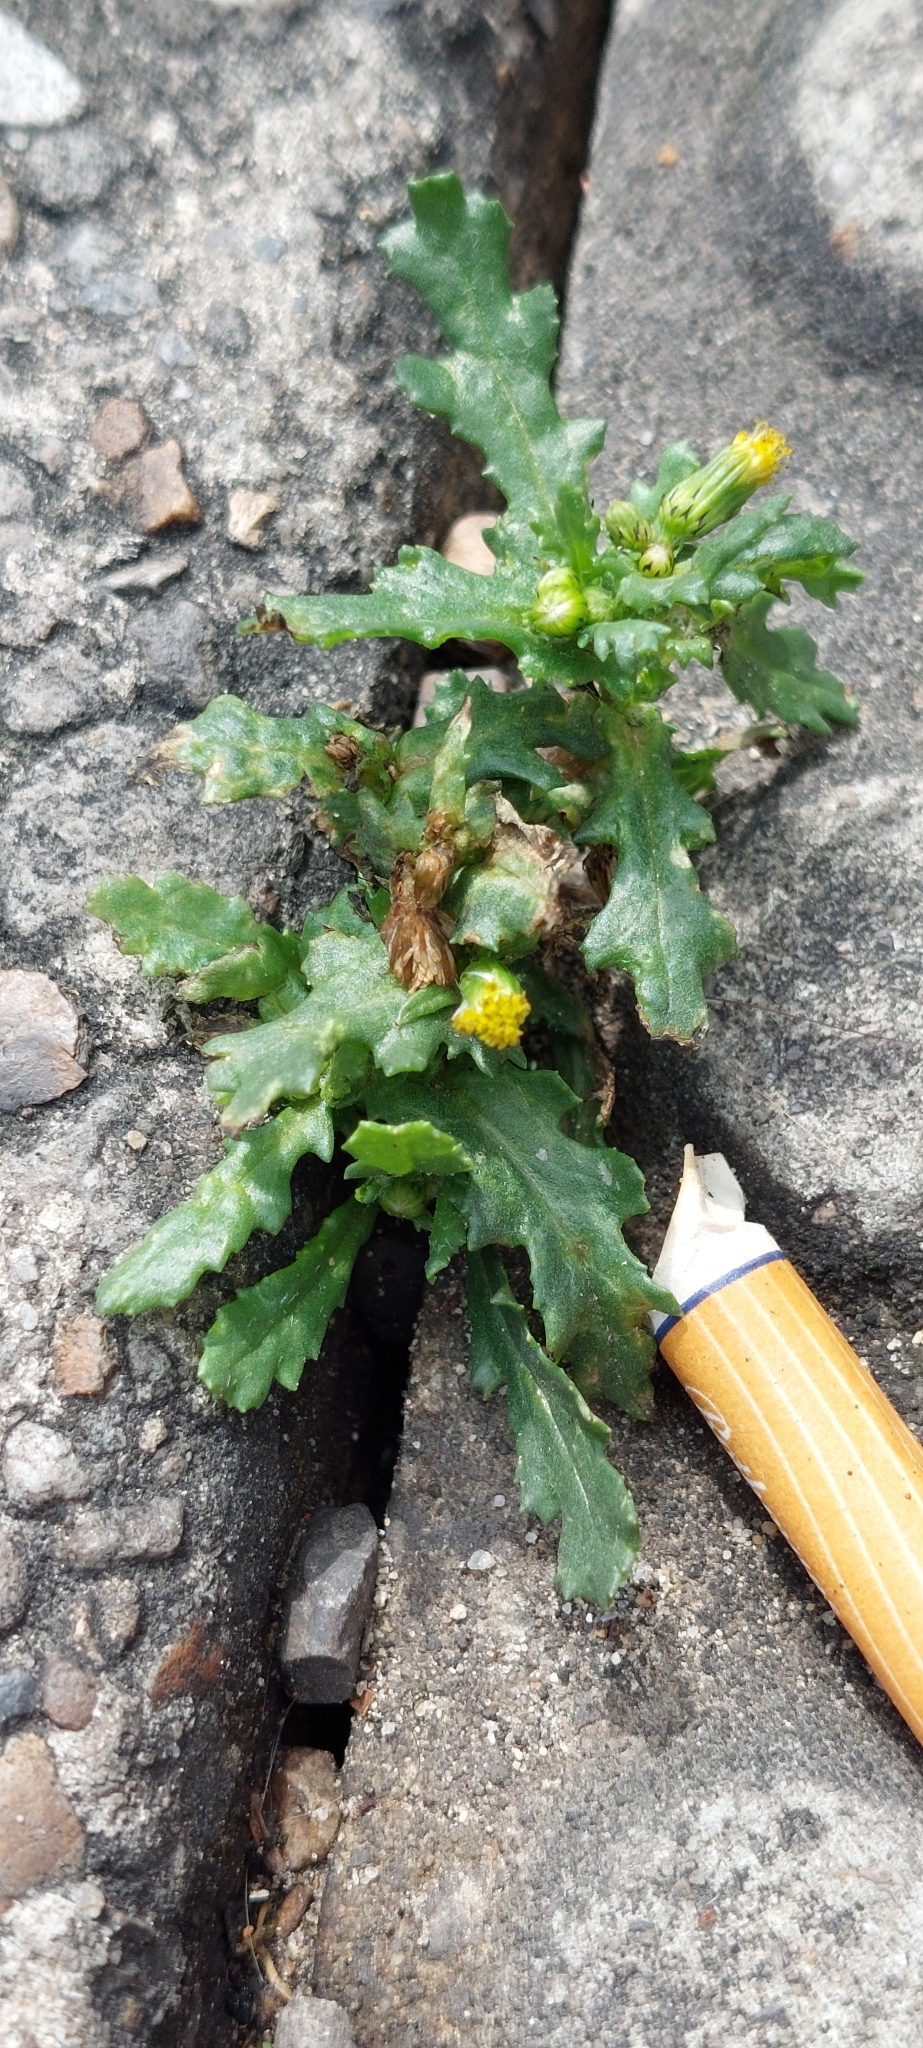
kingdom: Plantae
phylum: Tracheophyta
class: Magnoliopsida
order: Asterales
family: Asteraceae
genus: Senecio
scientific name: Senecio vulgaris
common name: Old-man-in-the-spring
